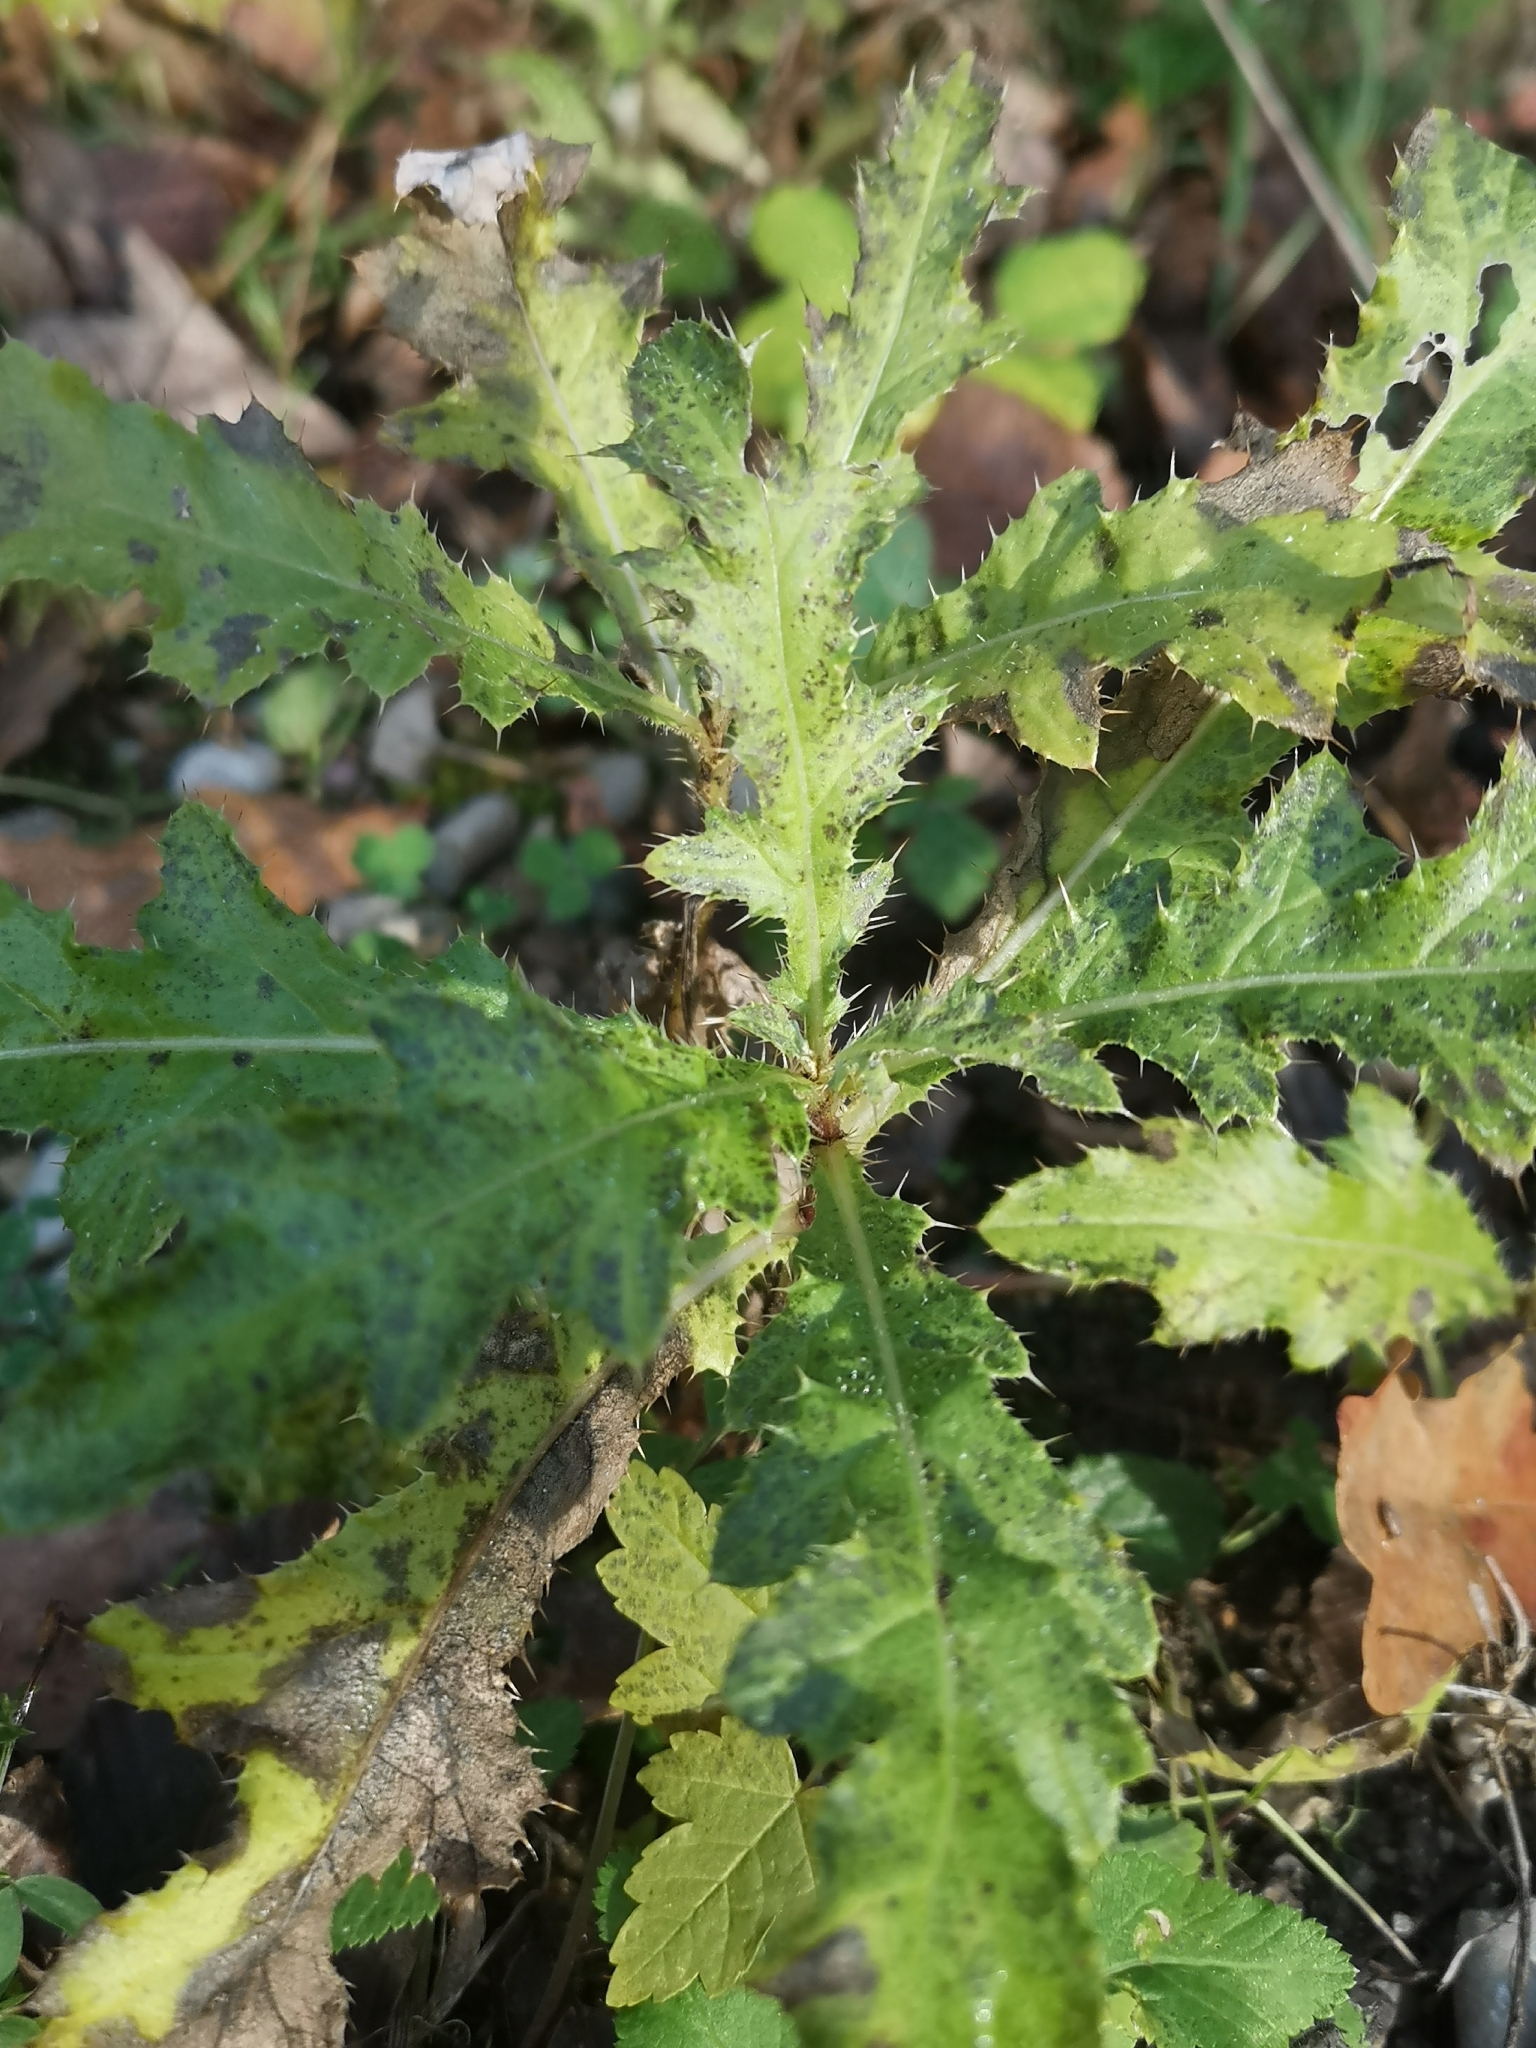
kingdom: Plantae
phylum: Tracheophyta
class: Magnoliopsida
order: Asterales
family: Asteraceae
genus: Cirsium
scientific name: Cirsium arvense
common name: Creeping thistle
